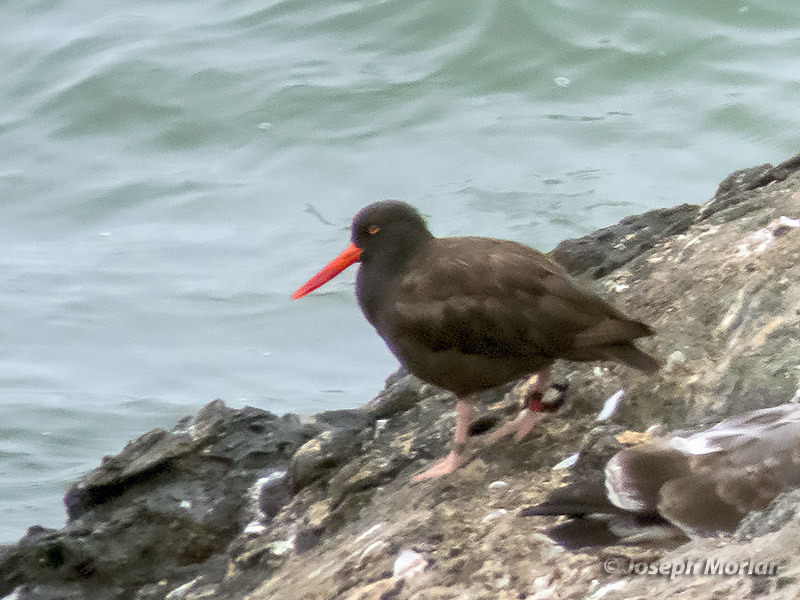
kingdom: Animalia
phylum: Chordata
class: Aves
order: Charadriiformes
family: Haematopodidae
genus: Haematopus
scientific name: Haematopus bachmani
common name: Black oystercatcher
